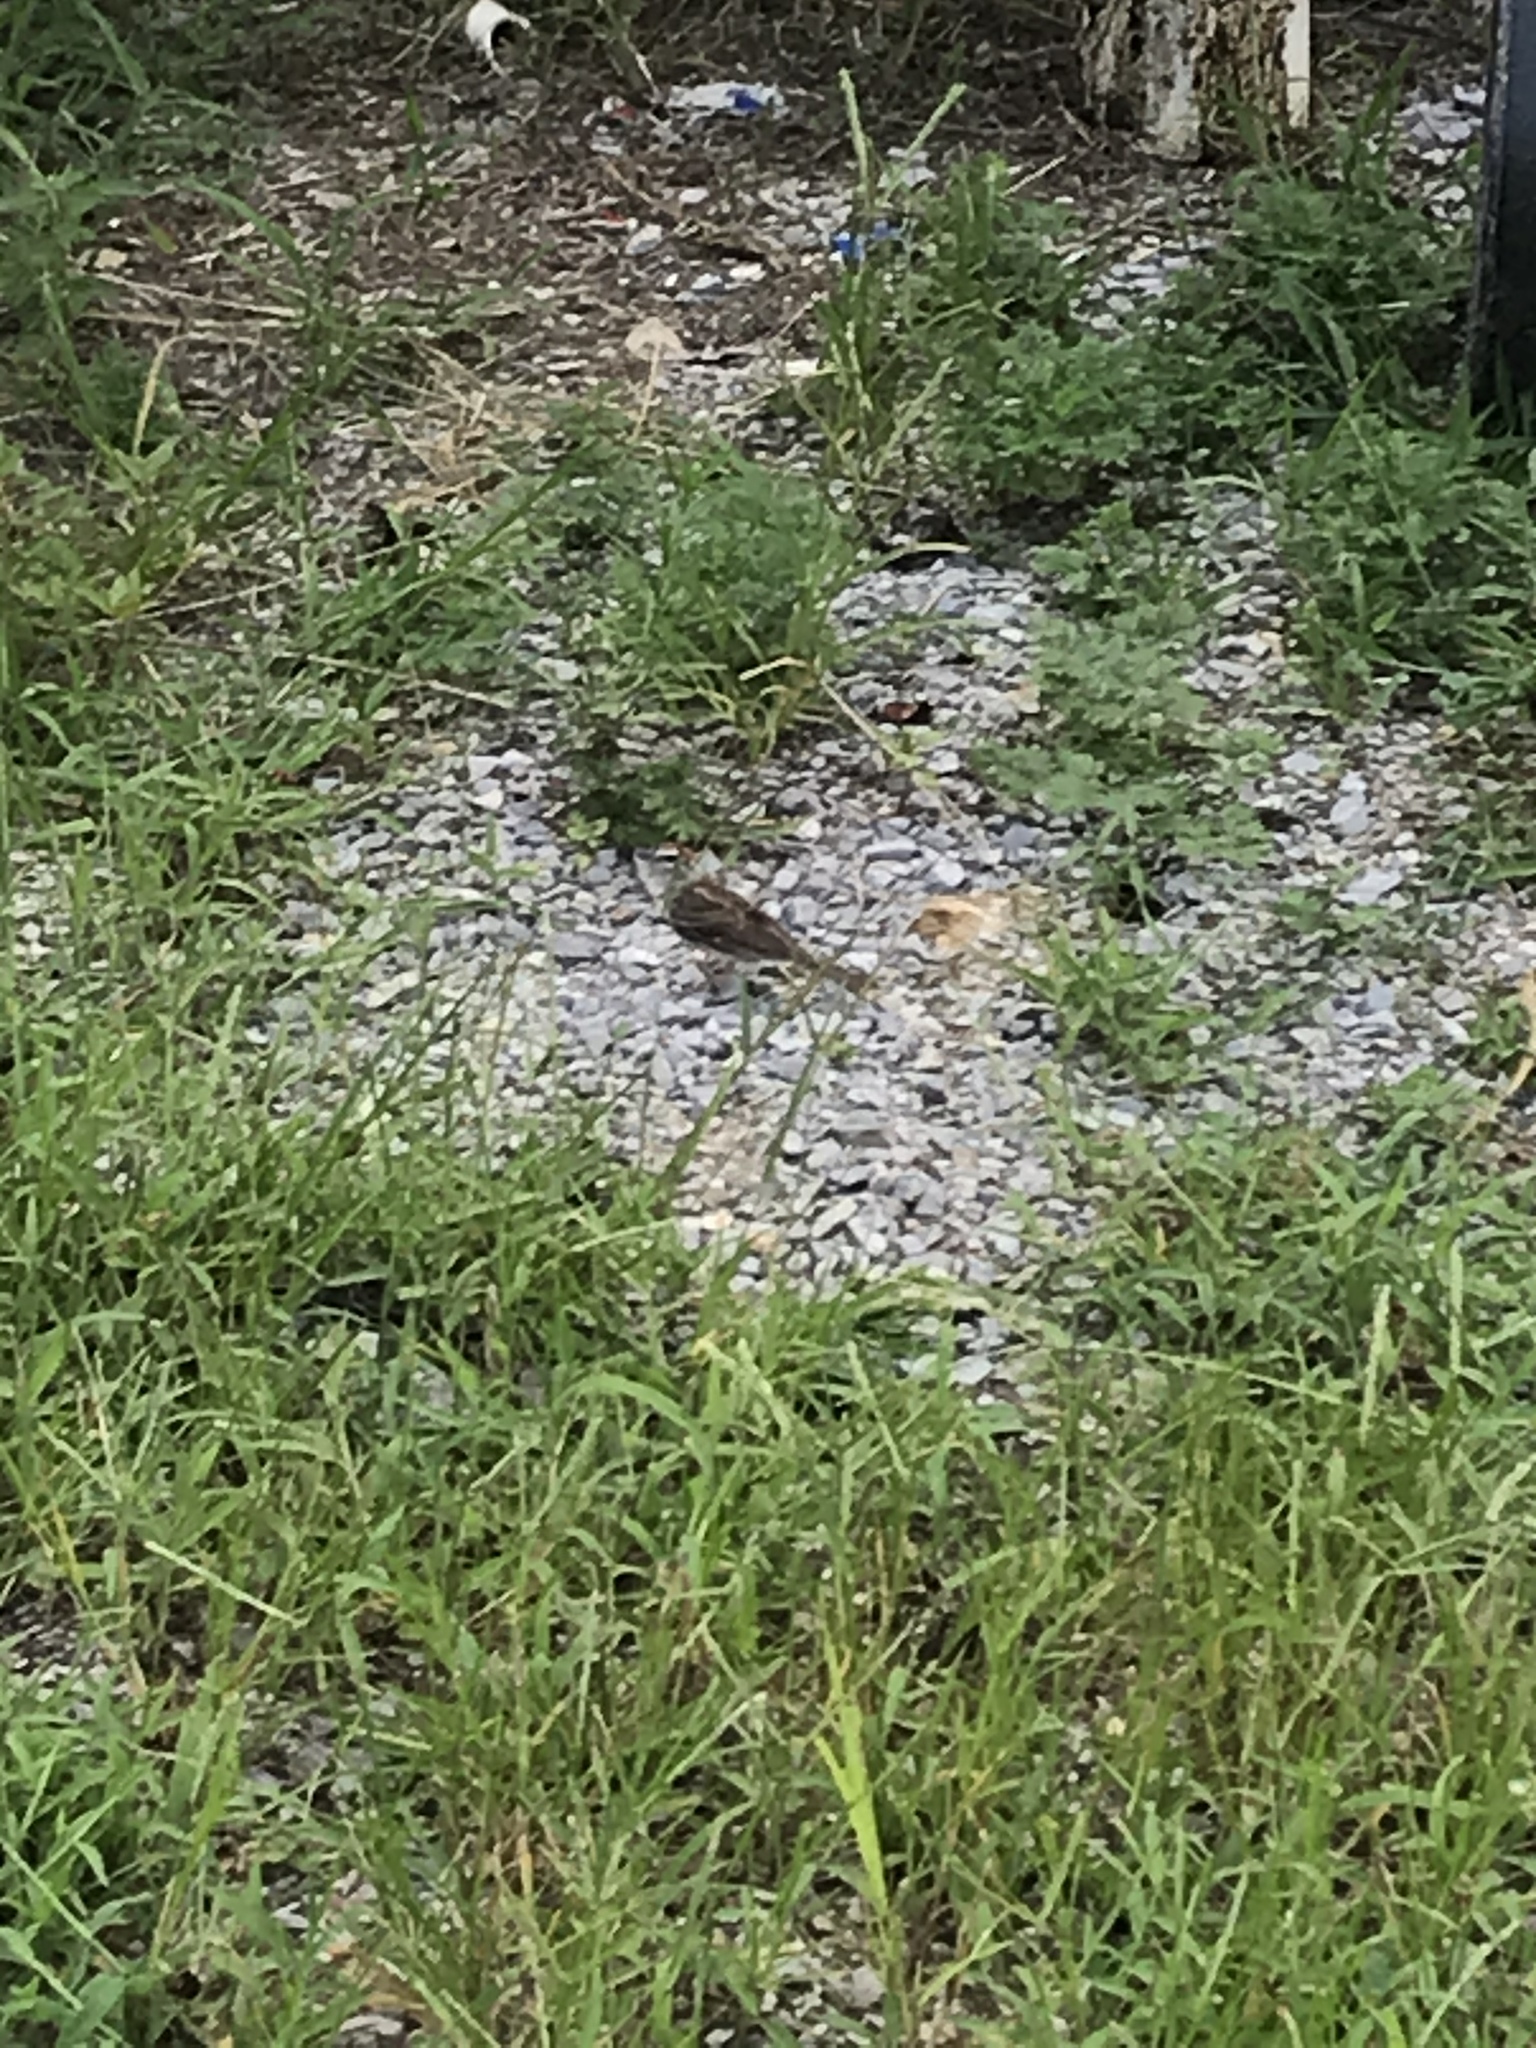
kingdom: Animalia
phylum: Chordata
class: Aves
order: Passeriformes
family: Passerellidae
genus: Spizella
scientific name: Spizella passerina
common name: Chipping sparrow
